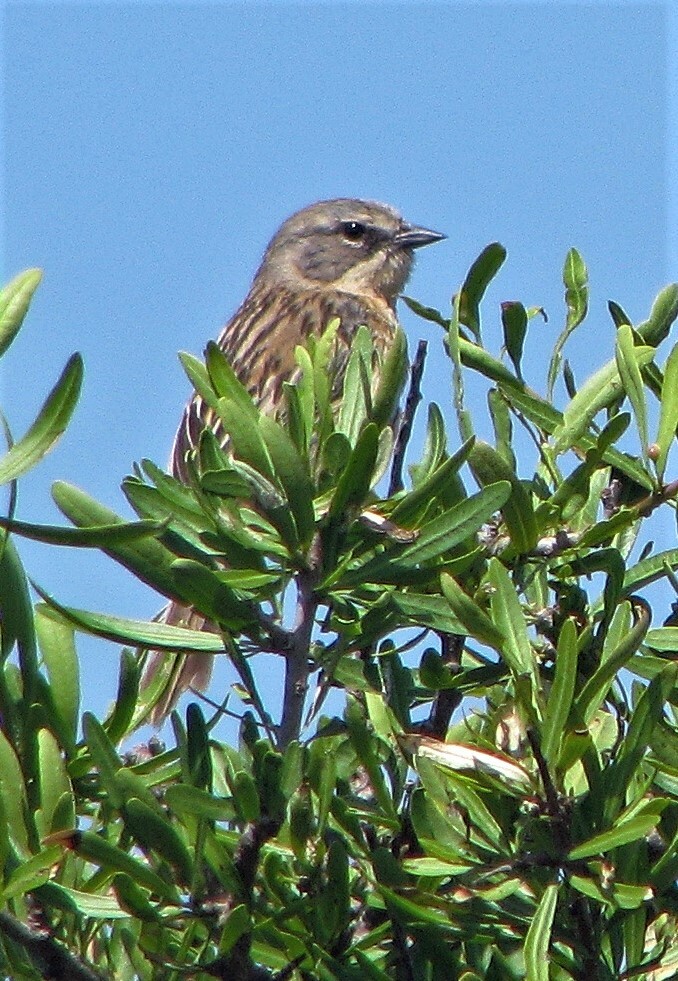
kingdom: Animalia
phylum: Chordata
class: Aves
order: Passeriformes
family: Thraupidae
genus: Donacospiza
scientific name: Donacospiza albifrons
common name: Long-tailed reed finch
